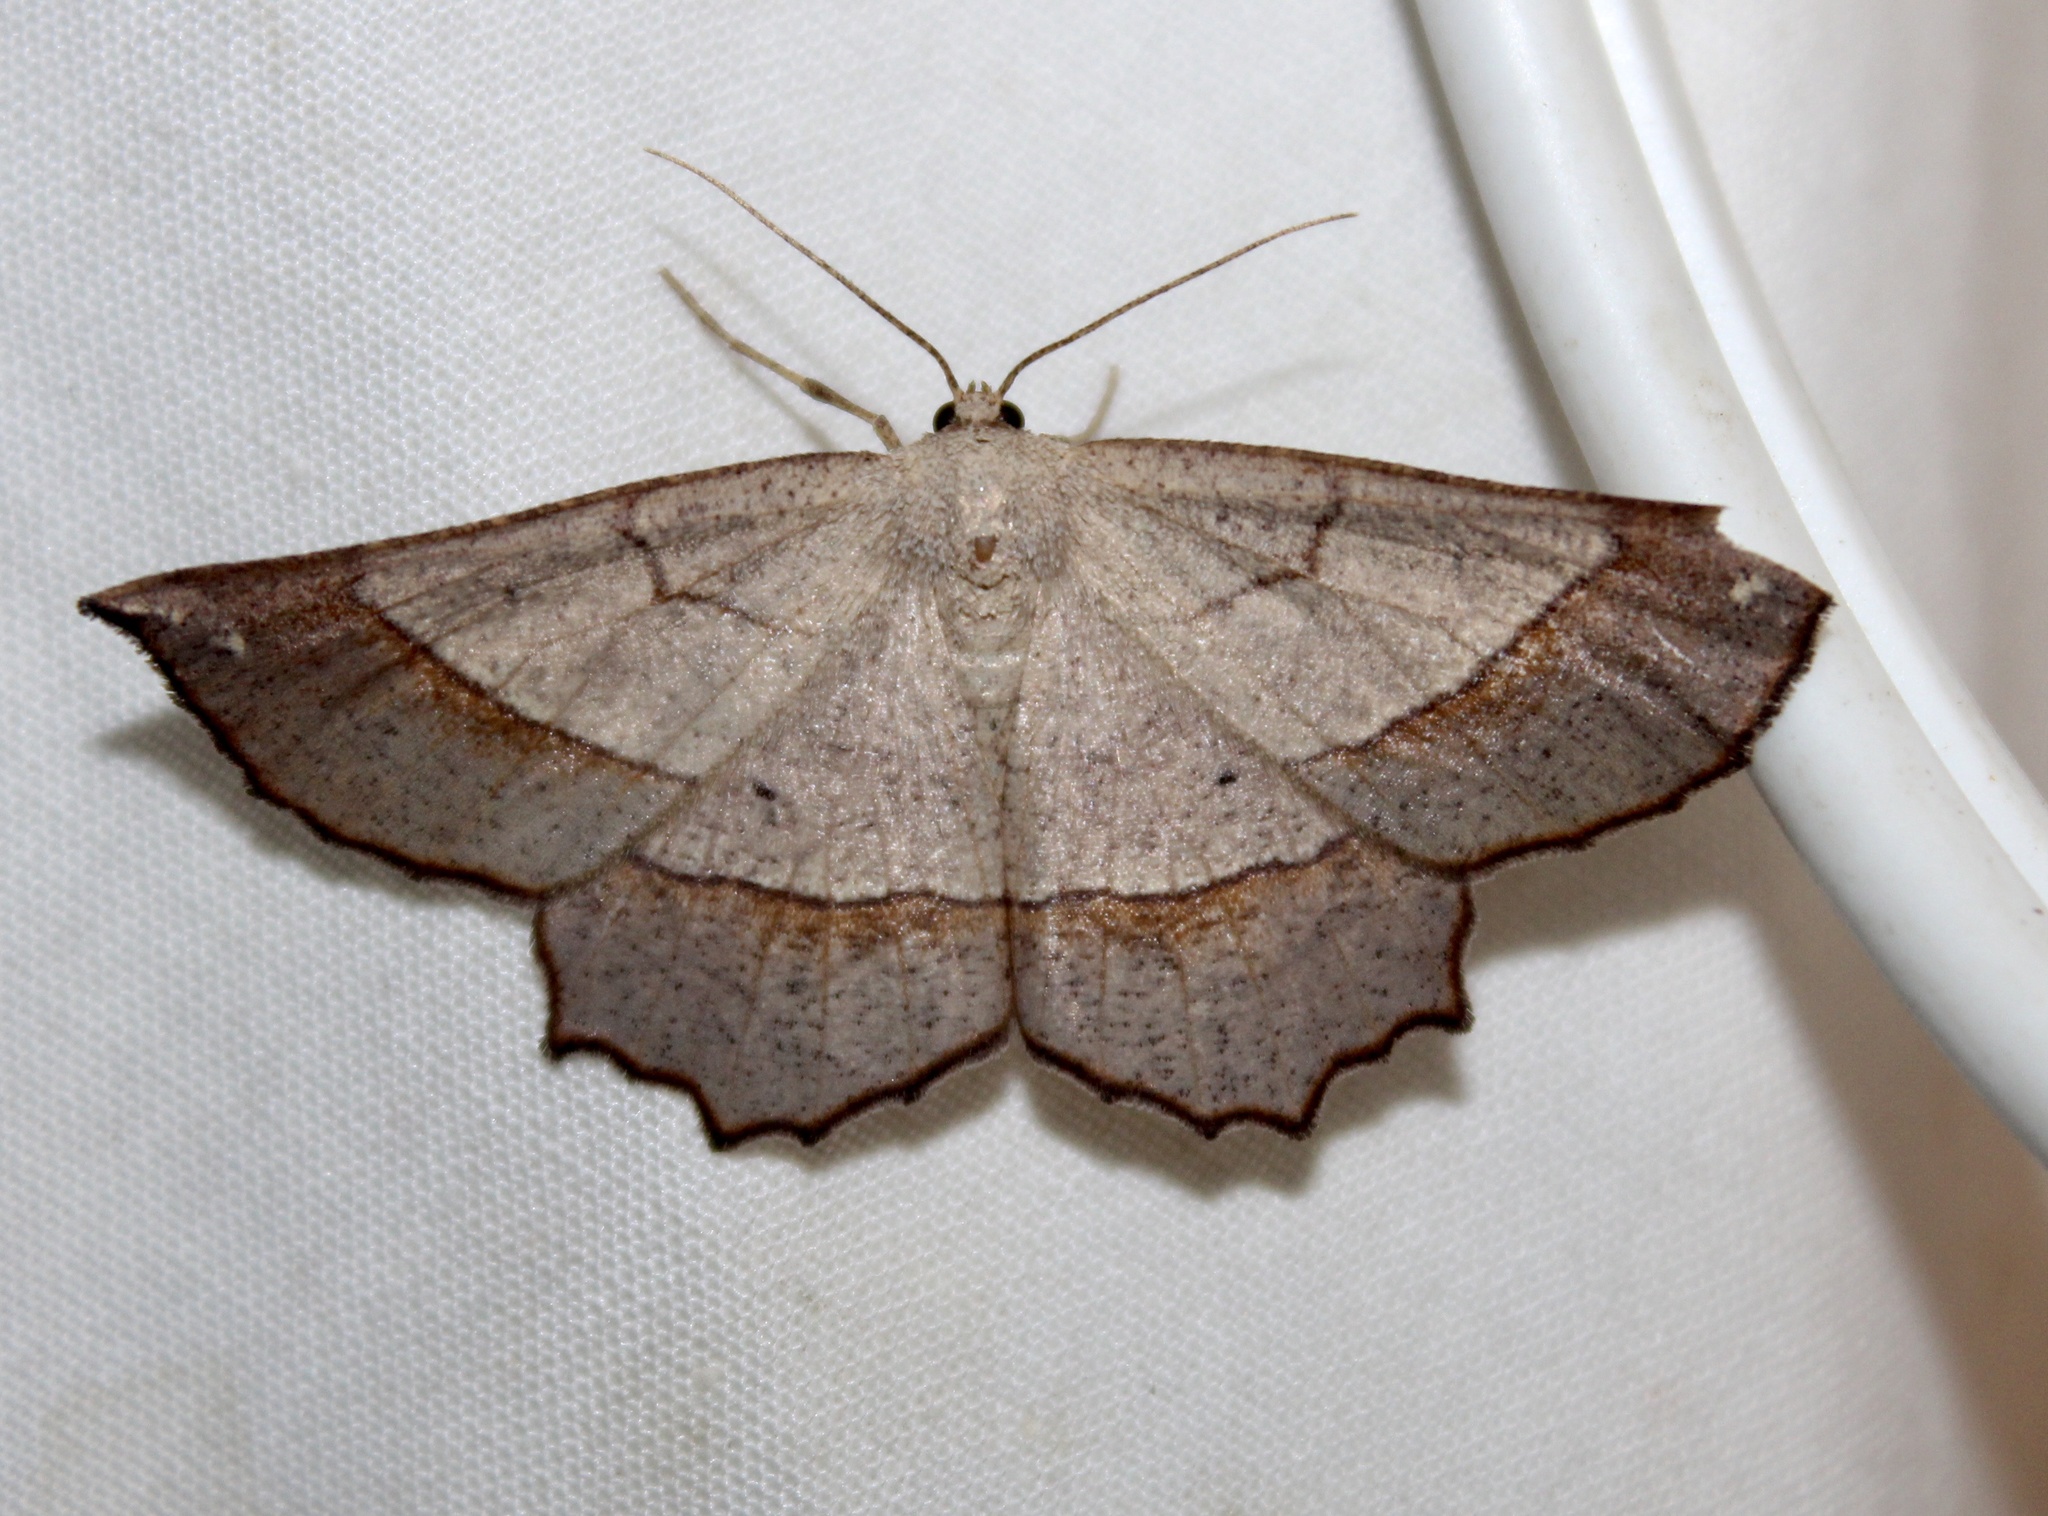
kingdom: Animalia
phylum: Arthropoda
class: Insecta
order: Lepidoptera
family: Geometridae
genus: Euchlaena
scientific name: Euchlaena madusaria
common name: Scrub euchlaena moth
